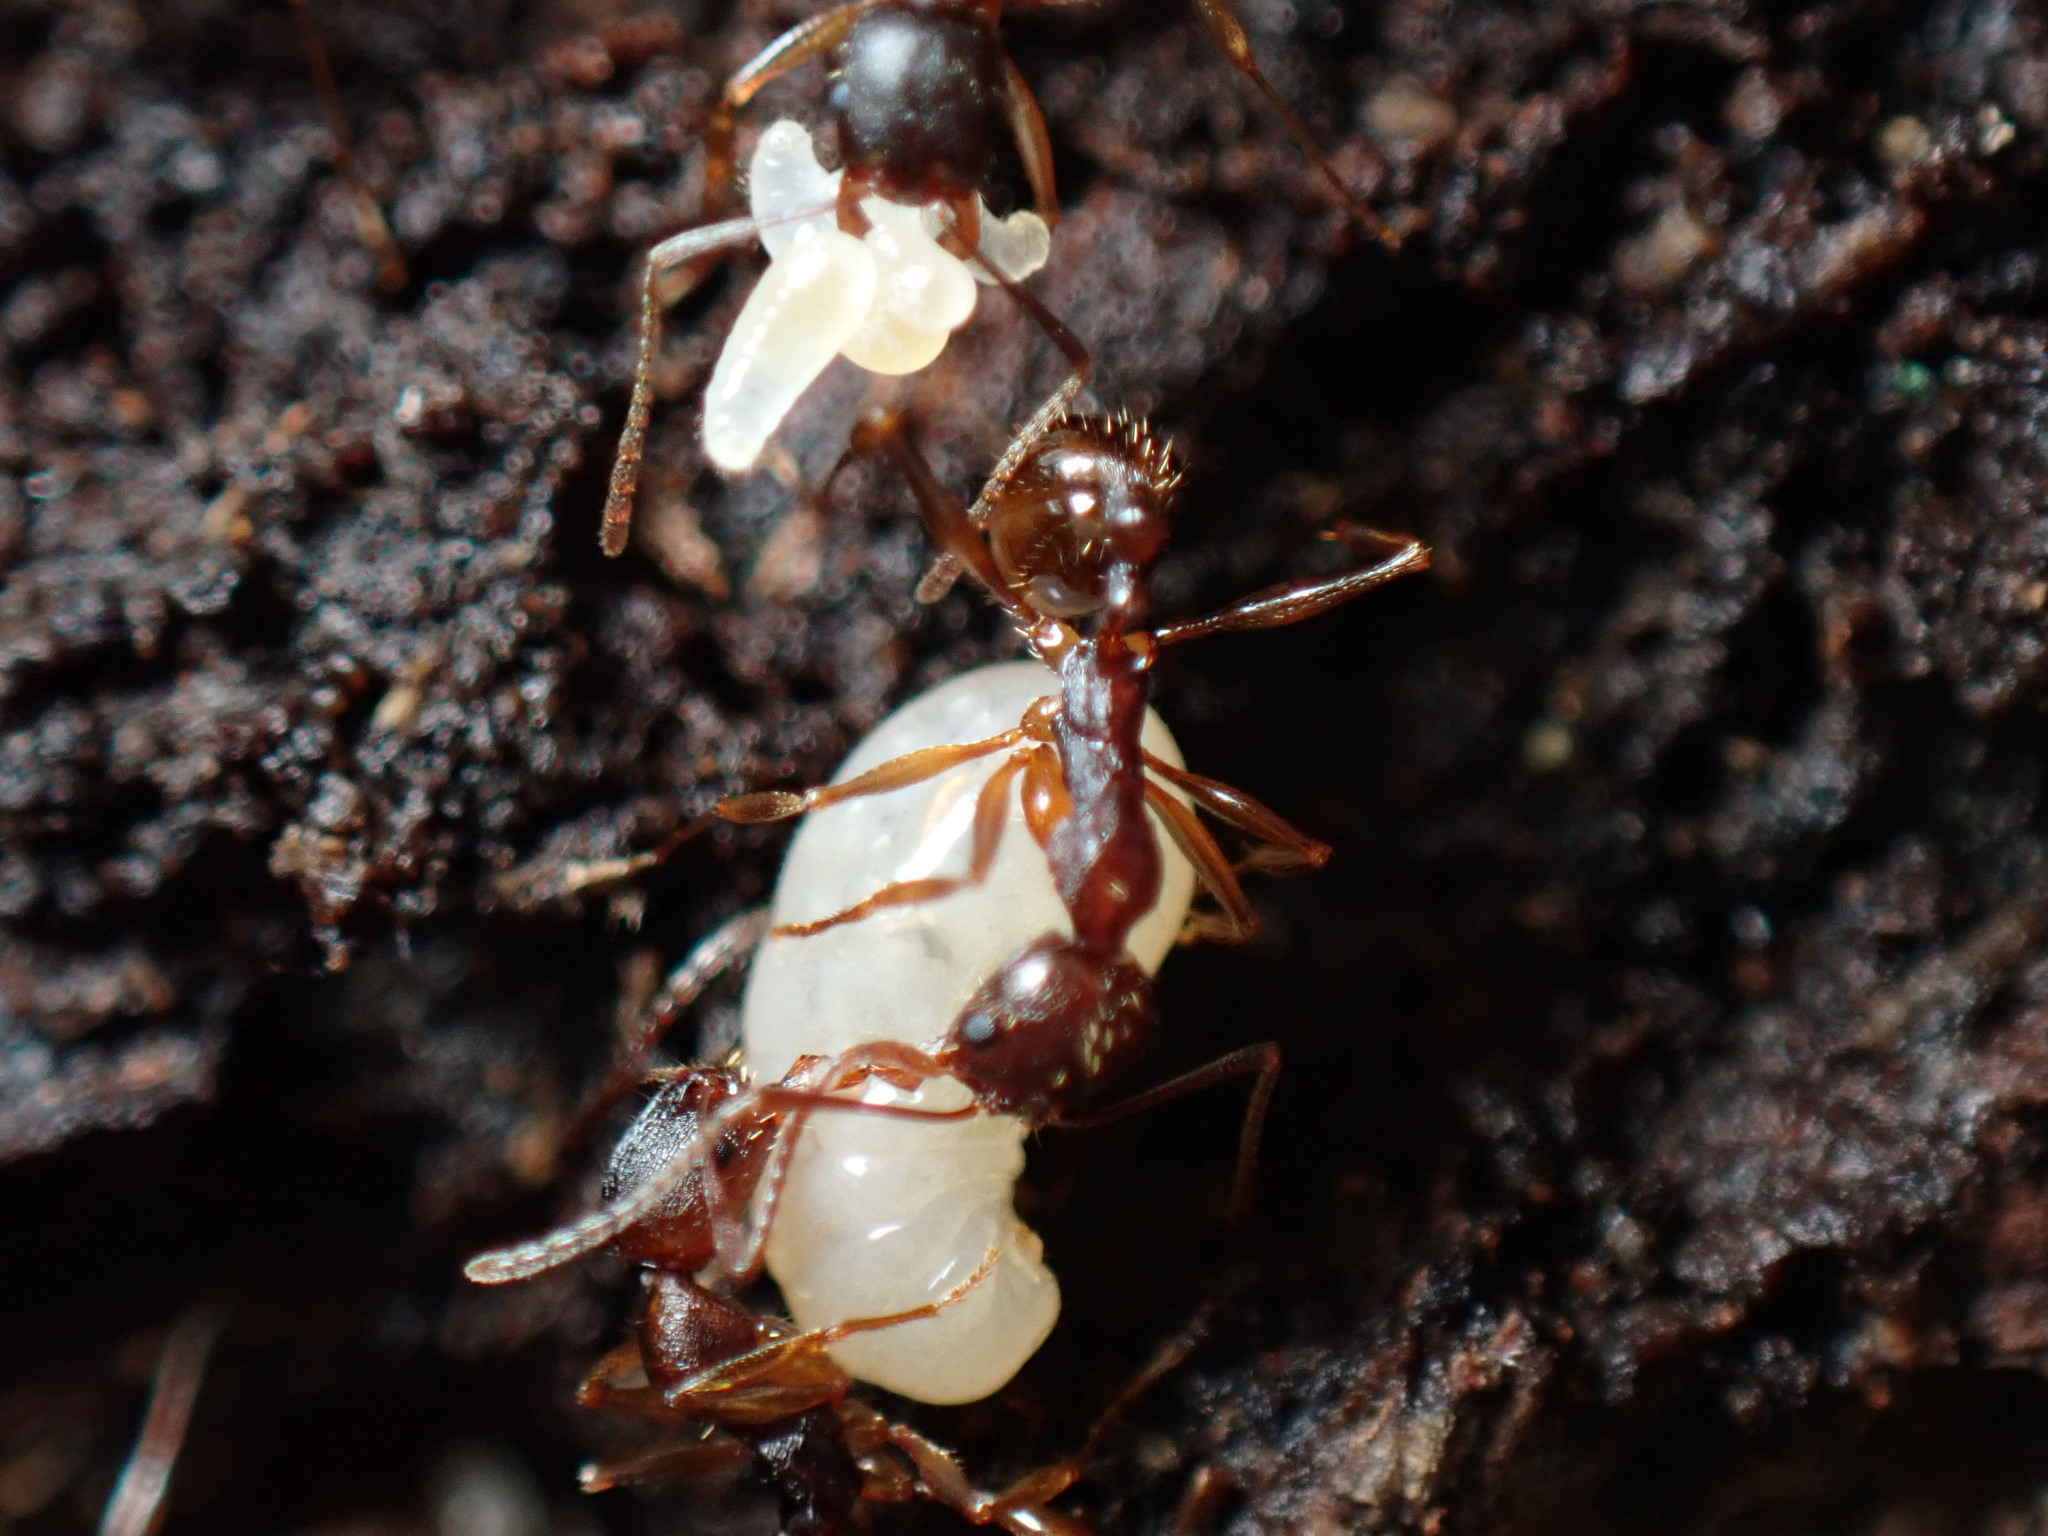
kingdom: Animalia
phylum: Arthropoda
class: Insecta
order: Hymenoptera
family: Formicidae
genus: Aphaenogaster
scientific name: Aphaenogaster rudis
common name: Winnow ant
